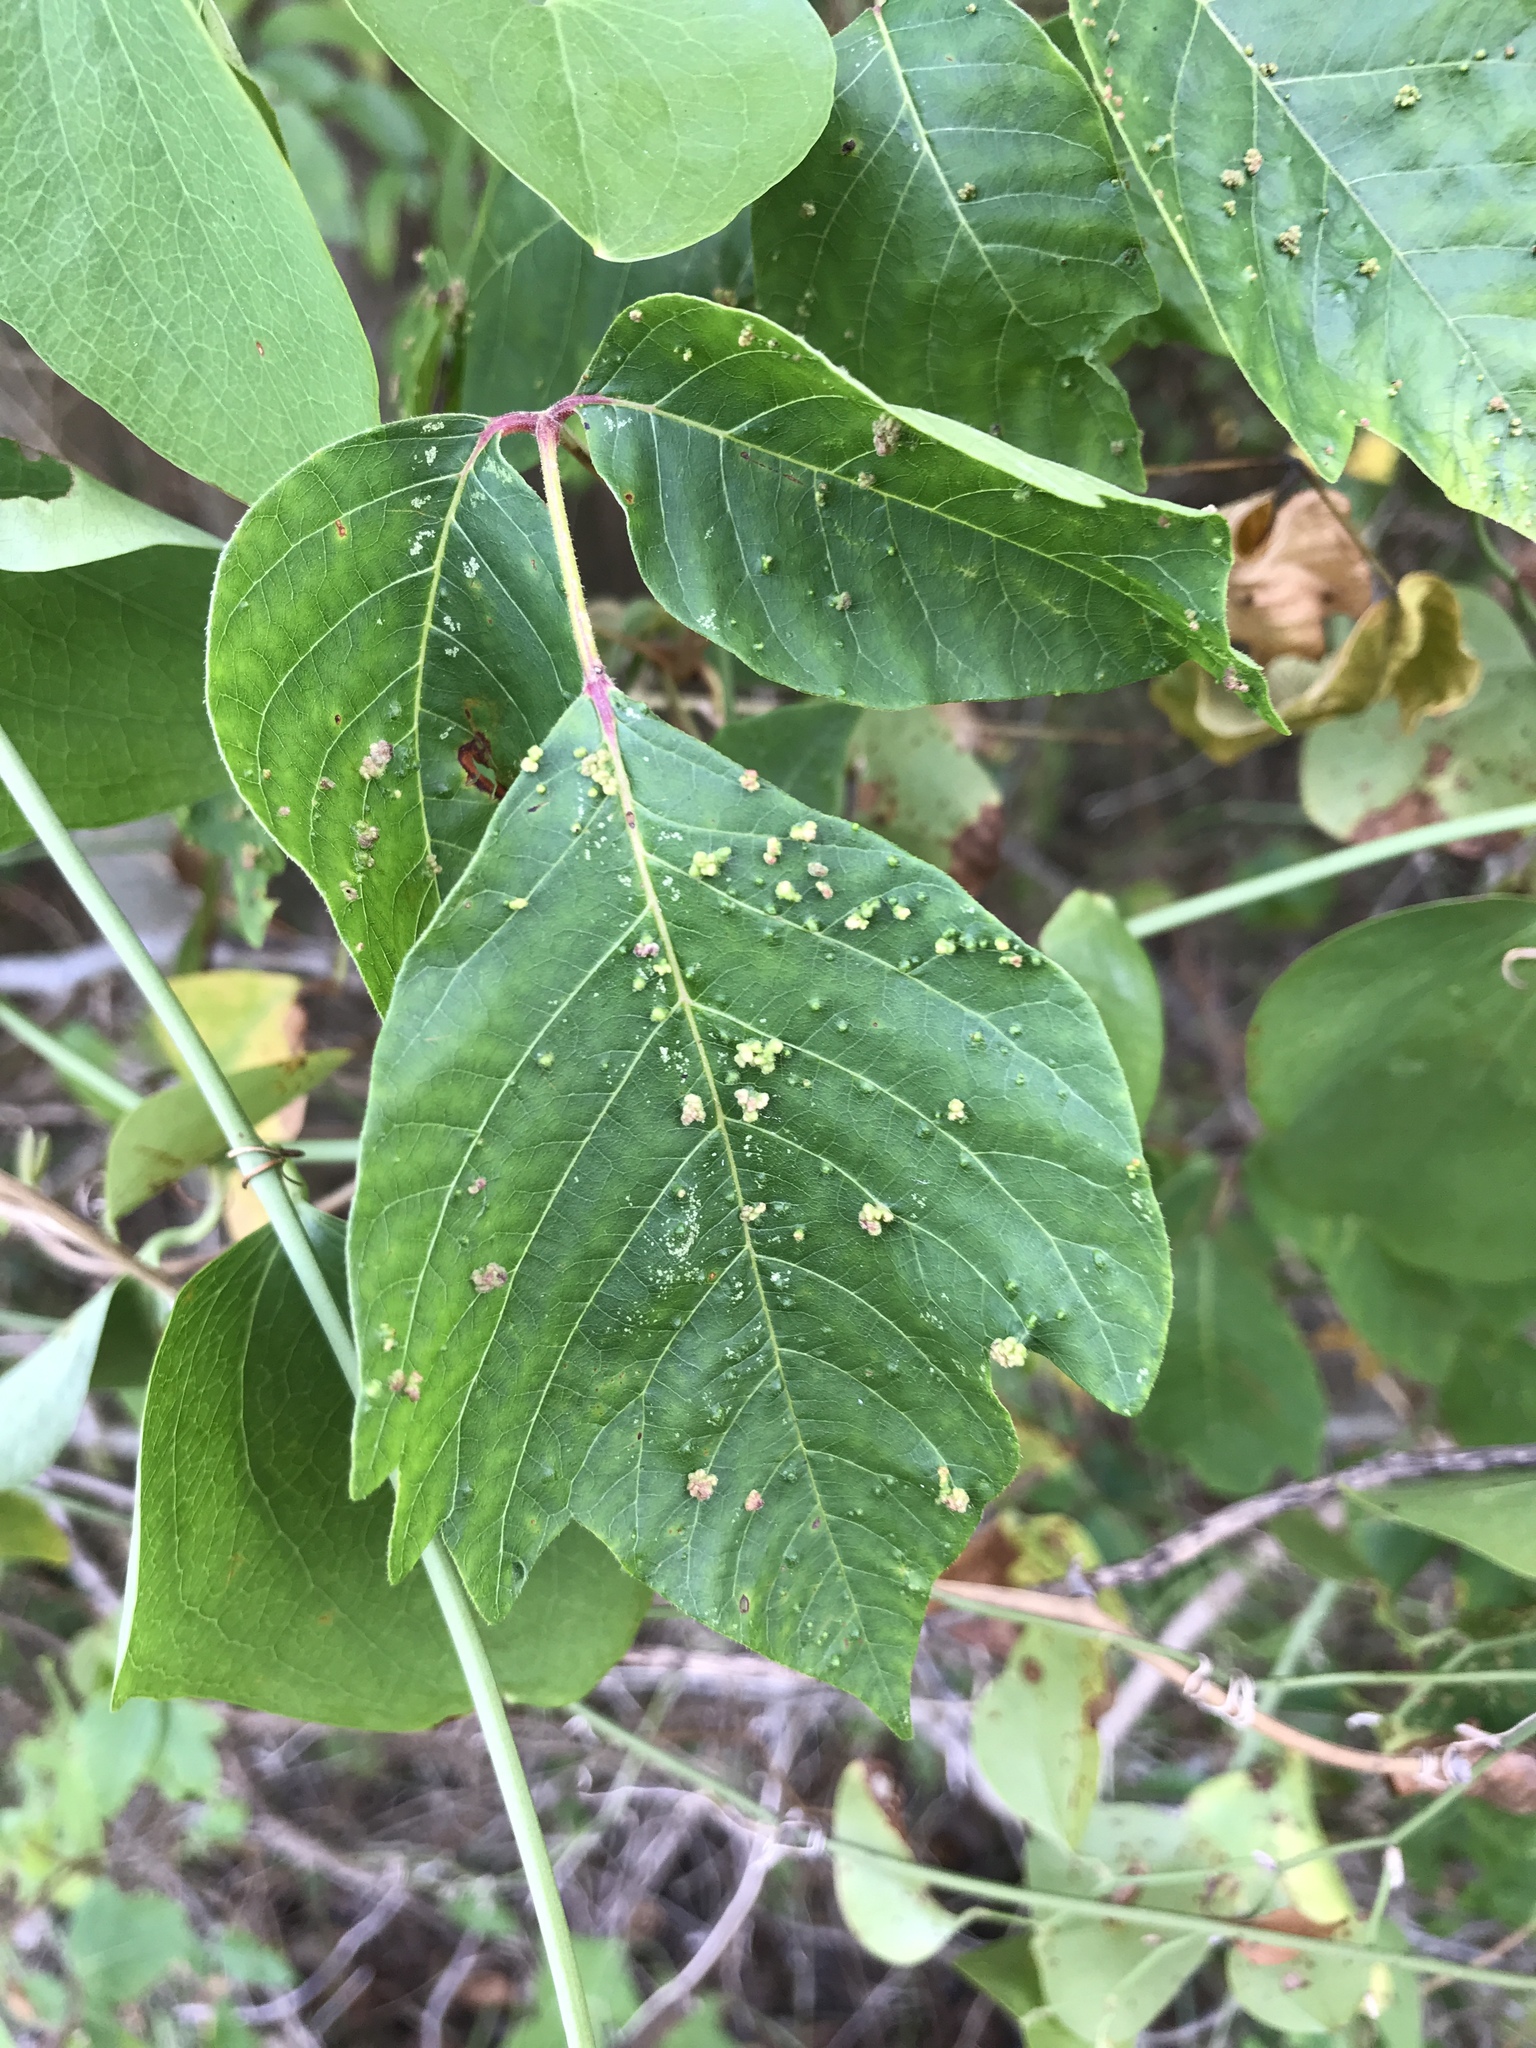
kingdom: Animalia
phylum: Arthropoda
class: Arachnida
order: Trombidiformes
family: Eriophyidae
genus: Aculops
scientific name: Aculops
